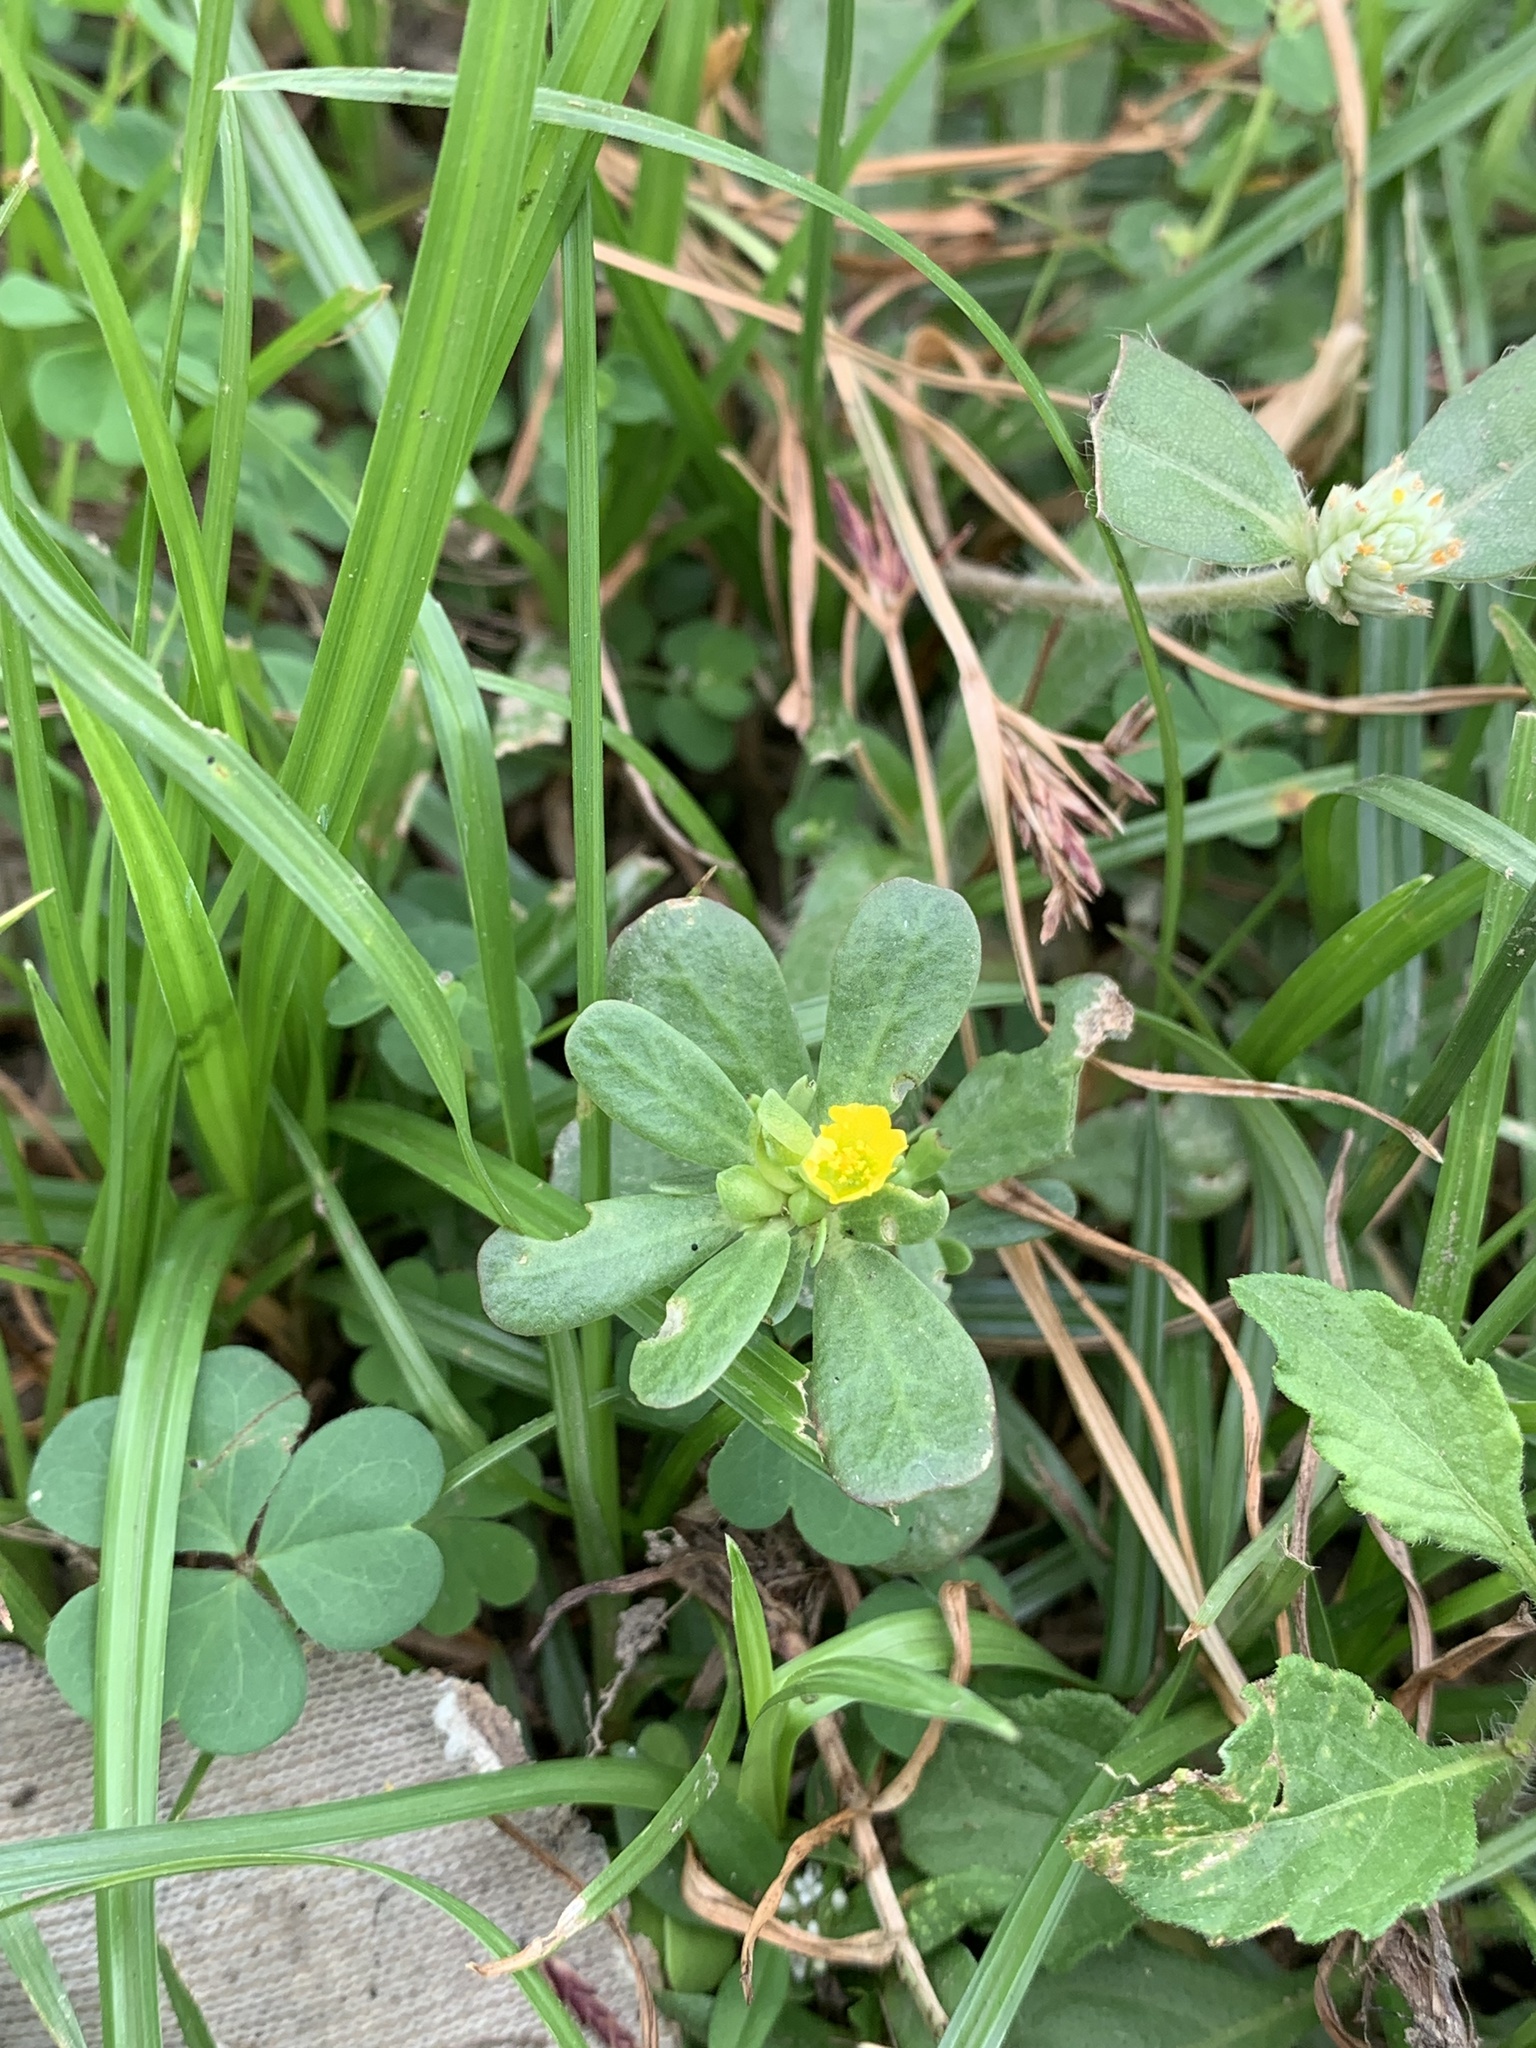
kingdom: Plantae
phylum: Tracheophyta
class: Magnoliopsida
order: Caryophyllales
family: Portulacaceae
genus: Portulaca
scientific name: Portulaca oleracea
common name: Common purslane
